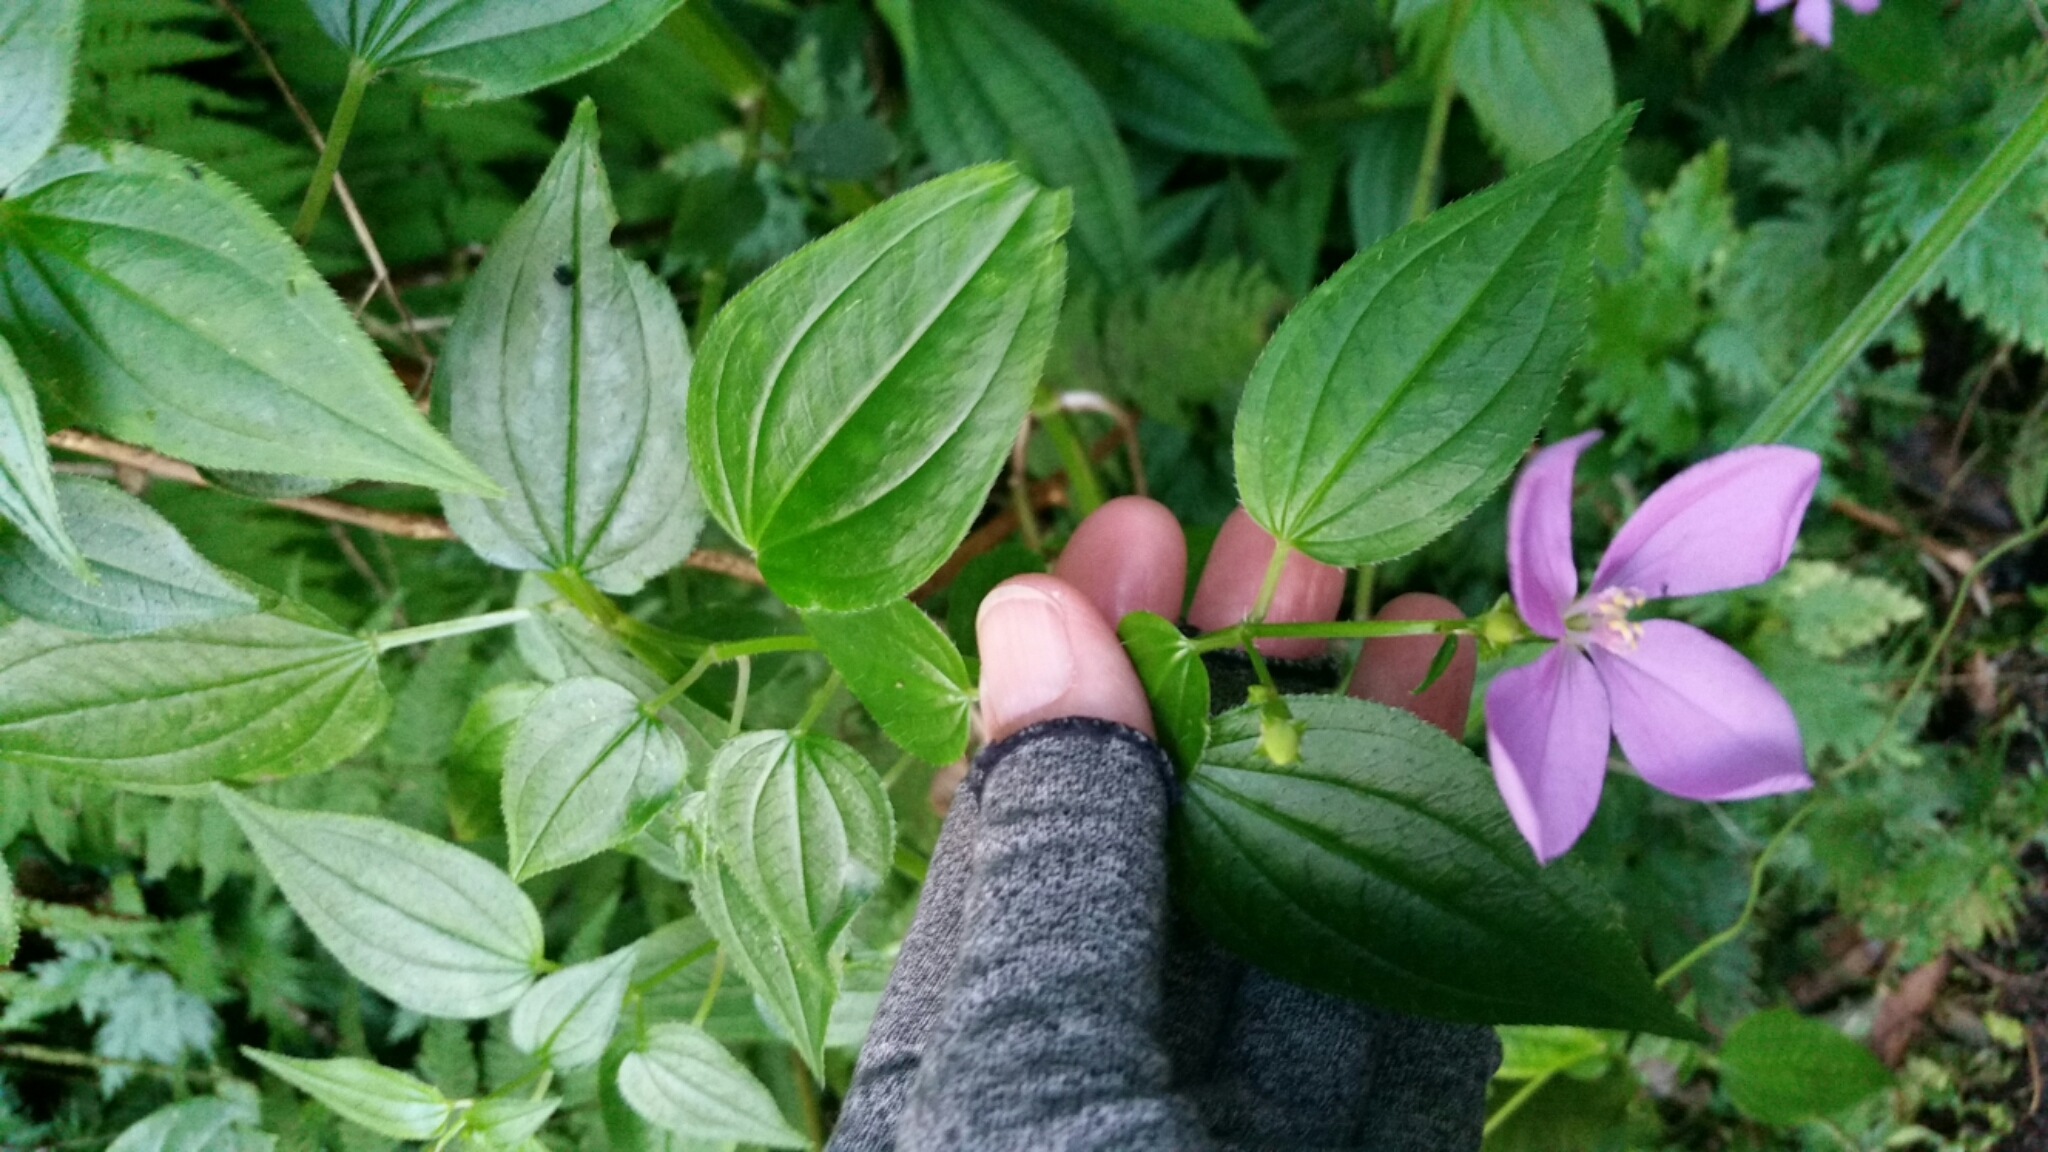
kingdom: Plantae
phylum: Tracheophyta
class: Magnoliopsida
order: Myrtales
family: Melastomataceae
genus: Arthrostemma
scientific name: Arthrostemma ciliatum
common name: Everblooming eavender
